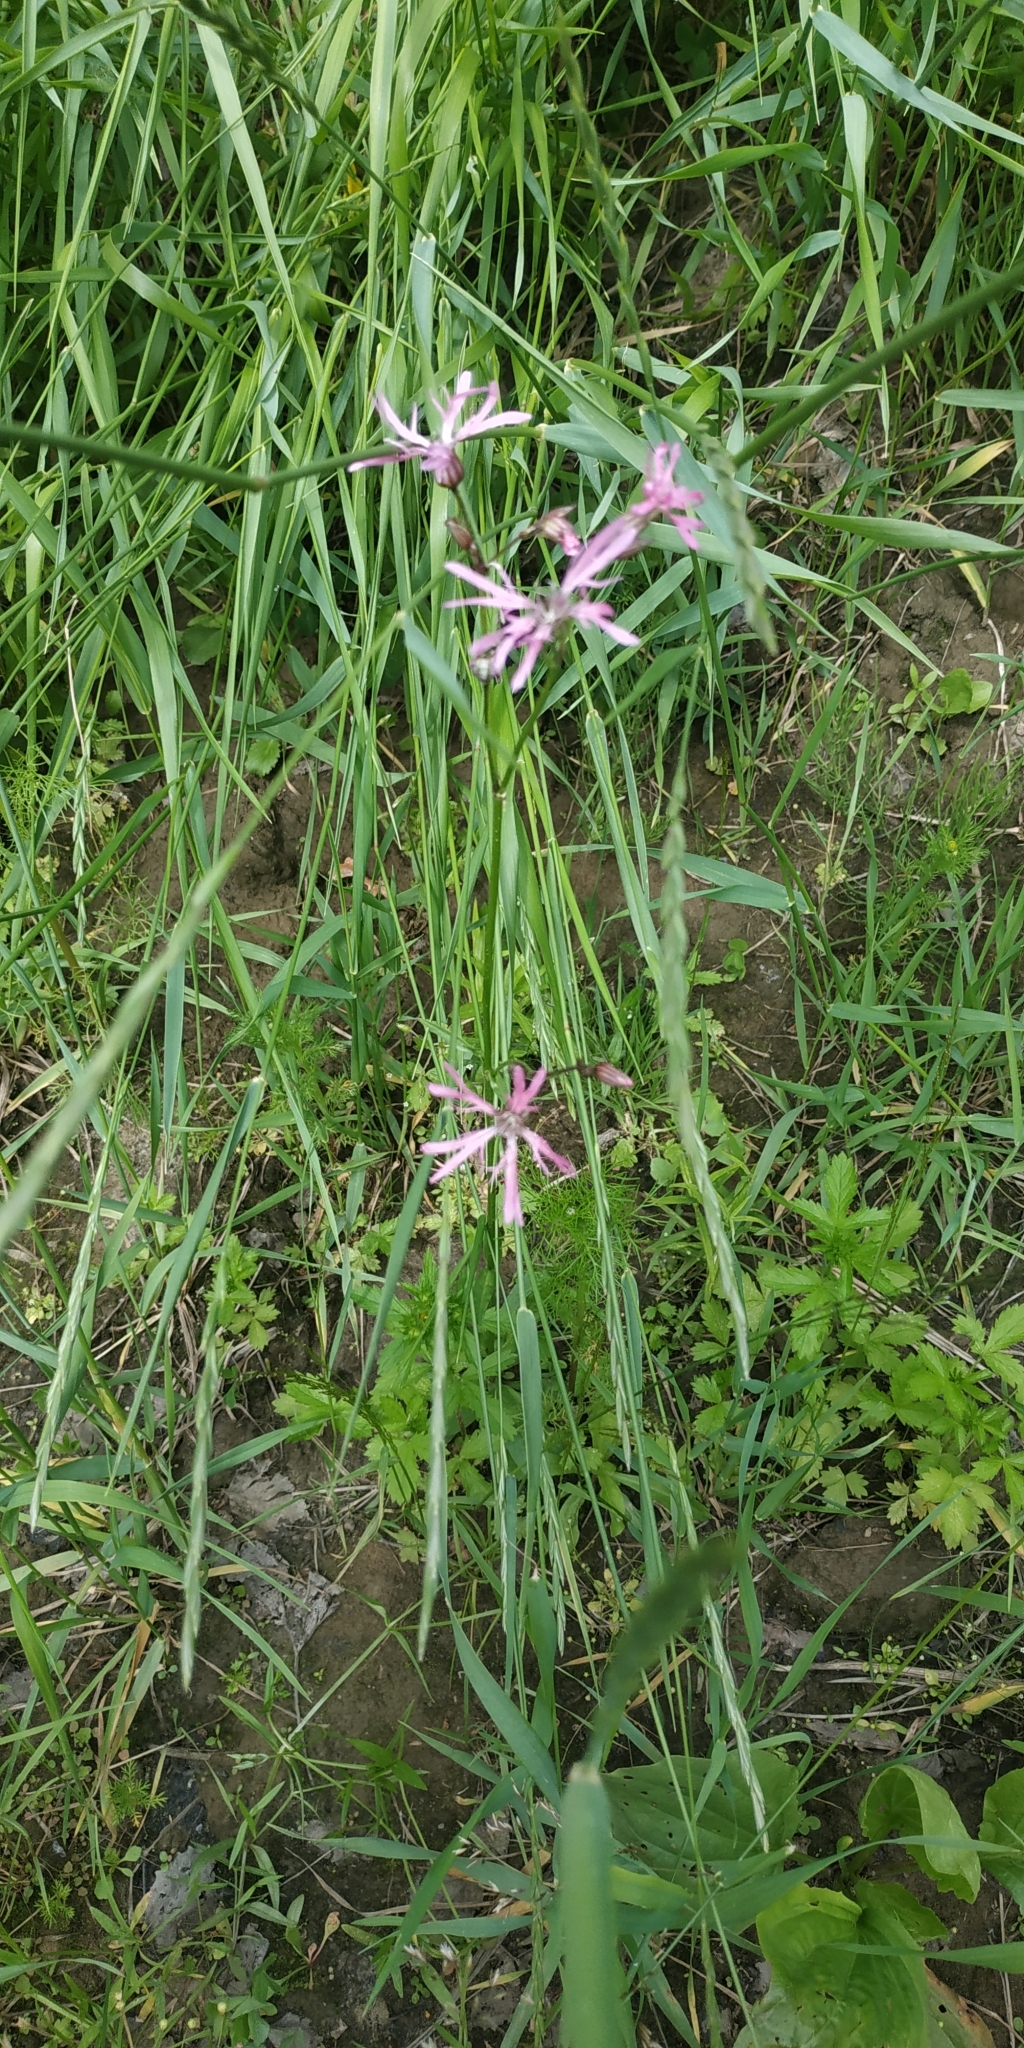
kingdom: Plantae
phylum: Tracheophyta
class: Magnoliopsida
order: Caryophyllales
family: Caryophyllaceae
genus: Silene
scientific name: Silene flos-cuculi
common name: Ragged-robin
